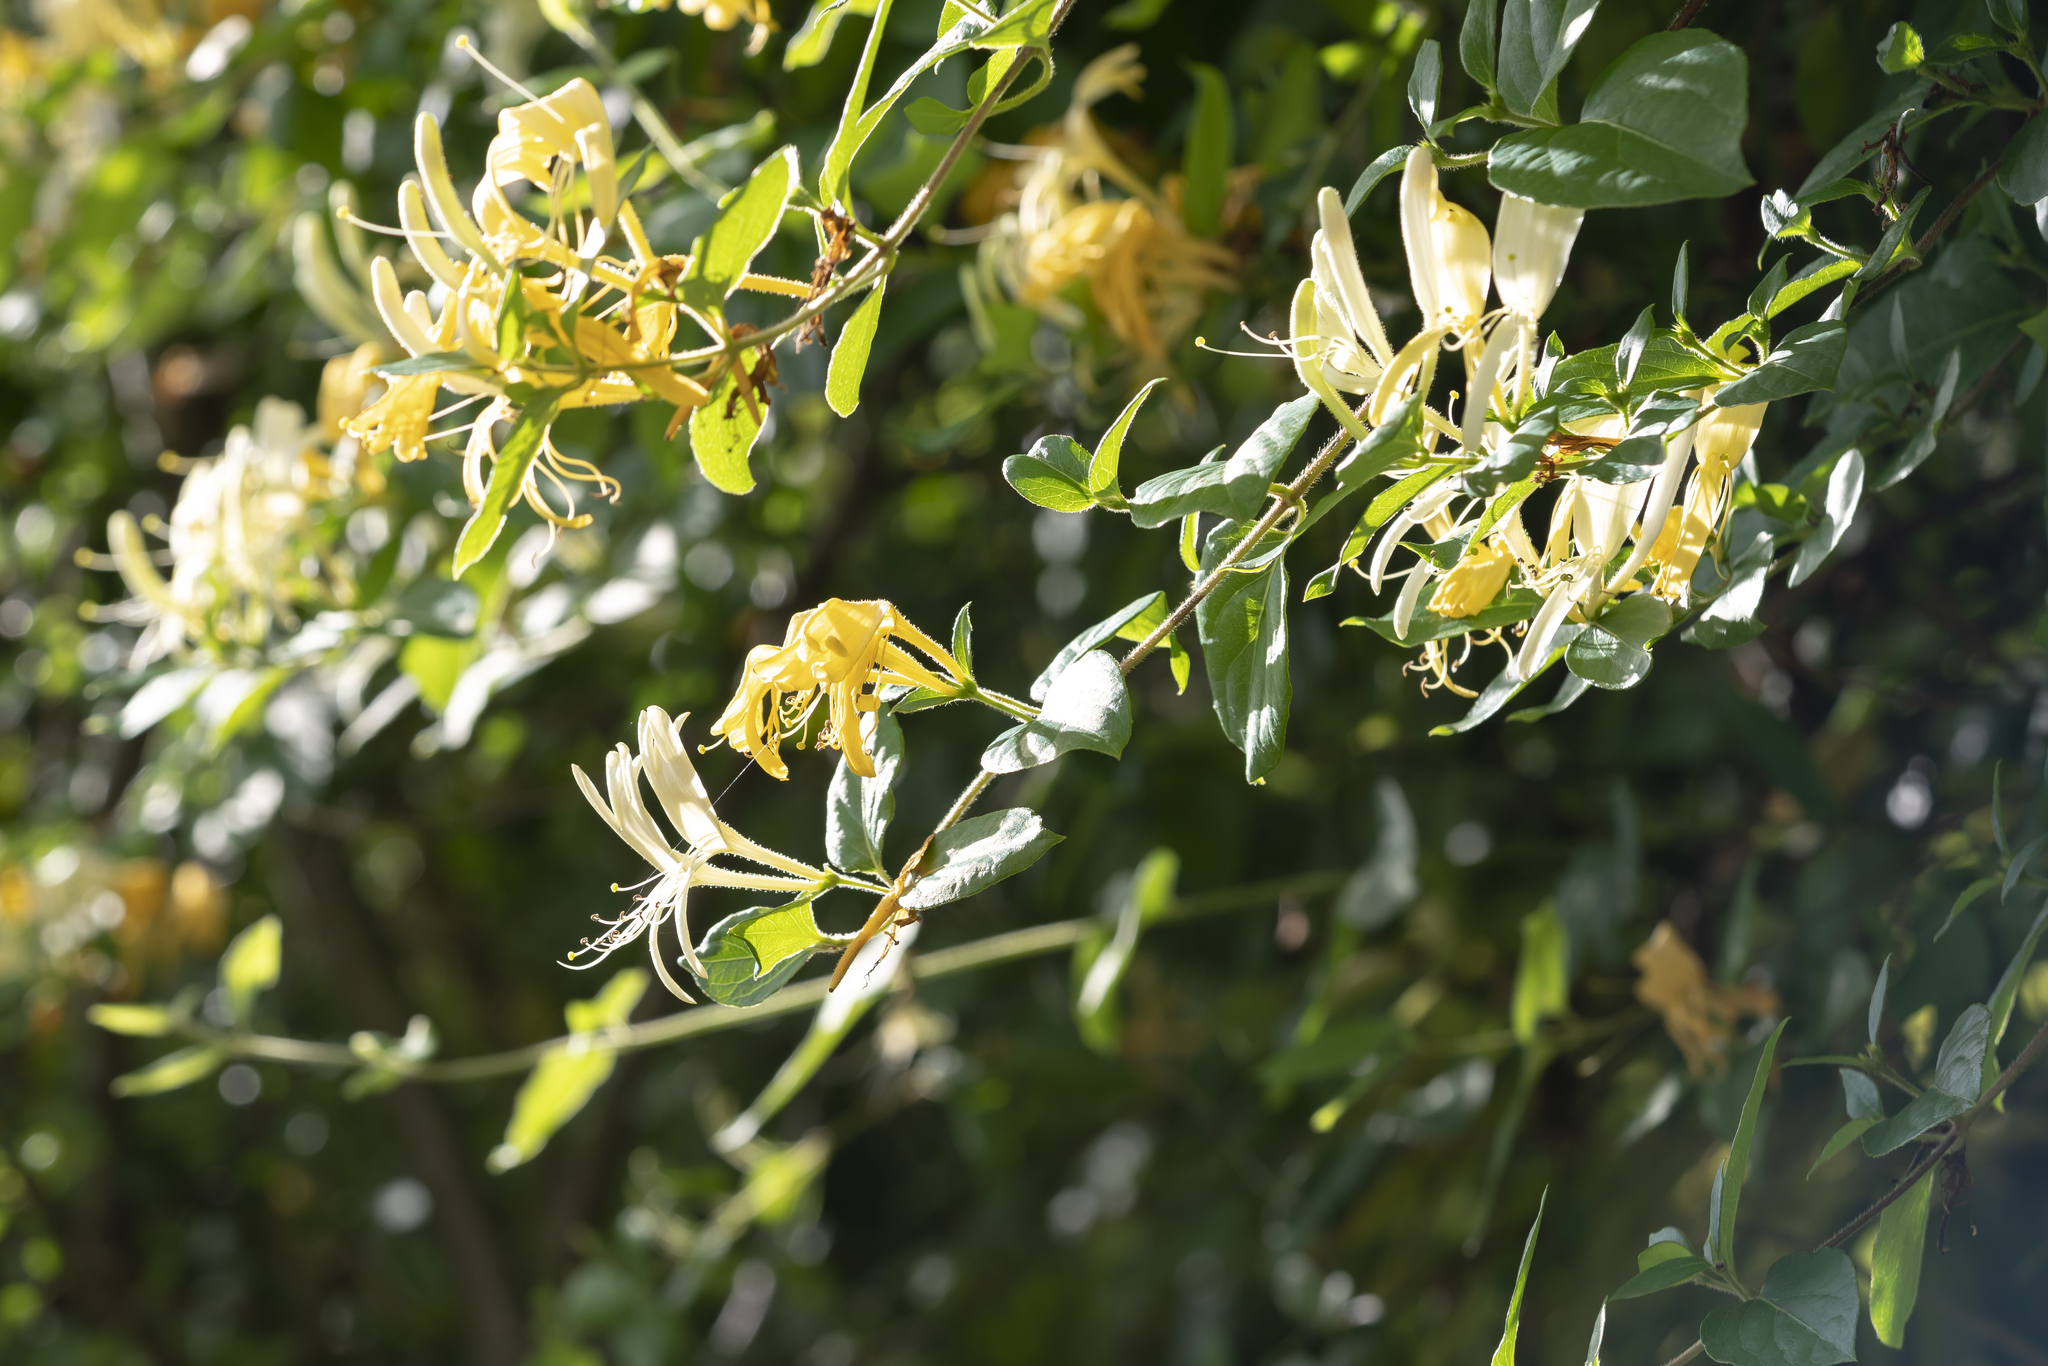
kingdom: Plantae
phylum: Tracheophyta
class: Magnoliopsida
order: Dipsacales
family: Caprifoliaceae
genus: Lonicera
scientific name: Lonicera japonica
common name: Japanese honeysuckle
